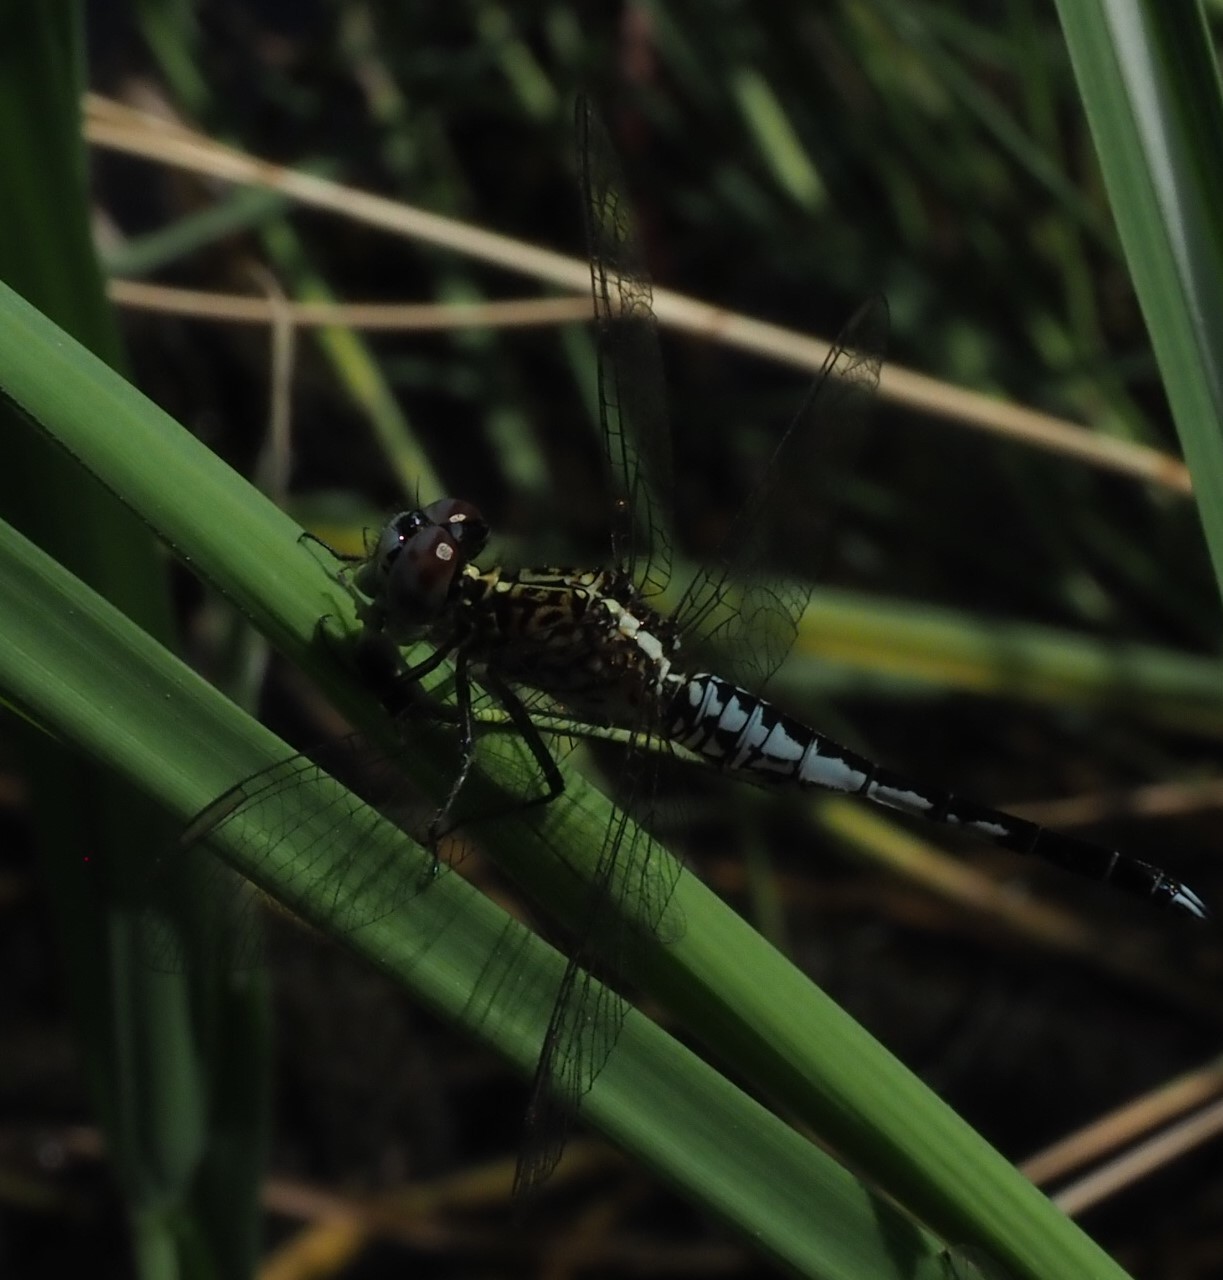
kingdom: Animalia
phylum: Arthropoda
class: Insecta
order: Odonata
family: Libellulidae
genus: Acisoma
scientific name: Acisoma inflatum
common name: Stout pintail
